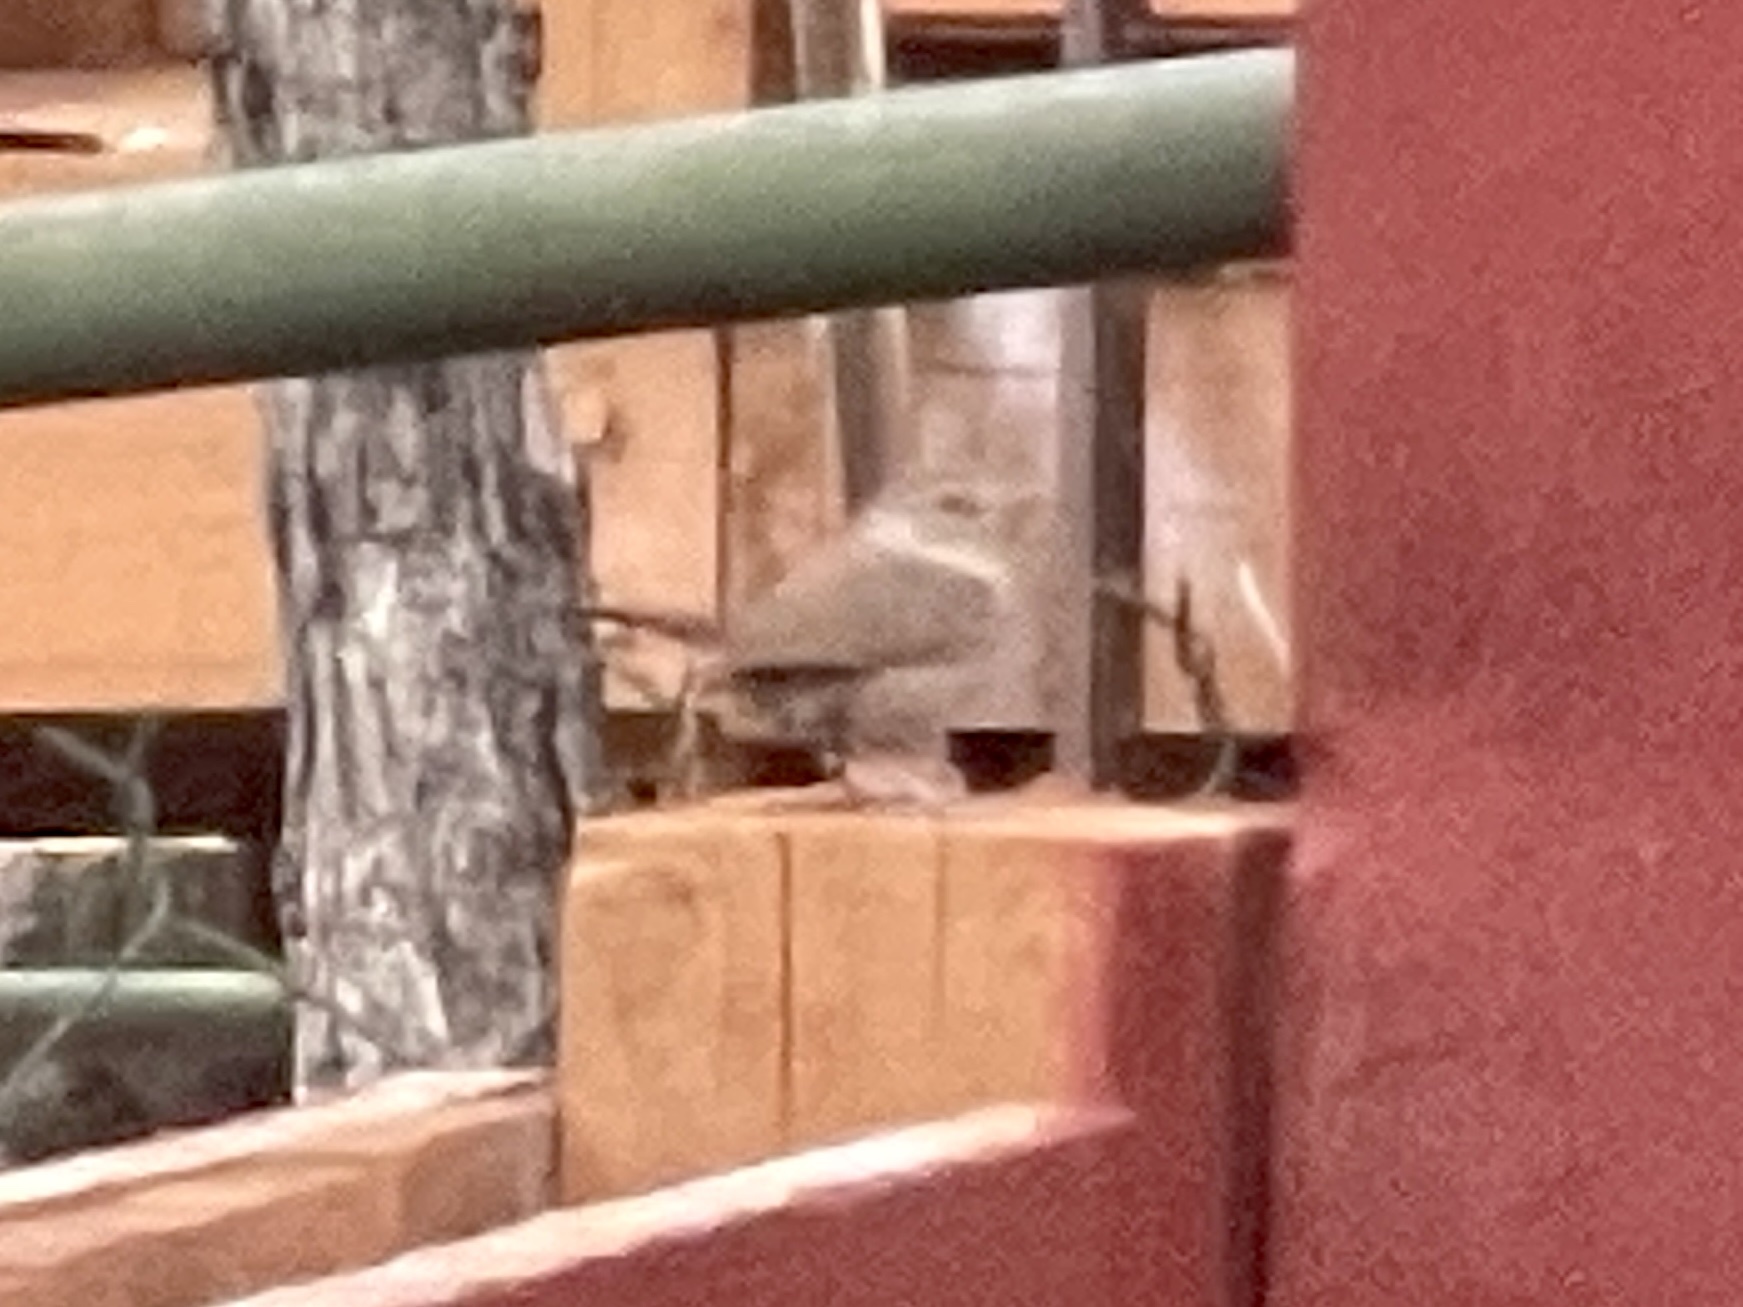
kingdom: Animalia
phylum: Chordata
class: Aves
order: Passeriformes
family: Troglodytidae
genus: Troglodytes
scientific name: Troglodytes aedon
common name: House wren
